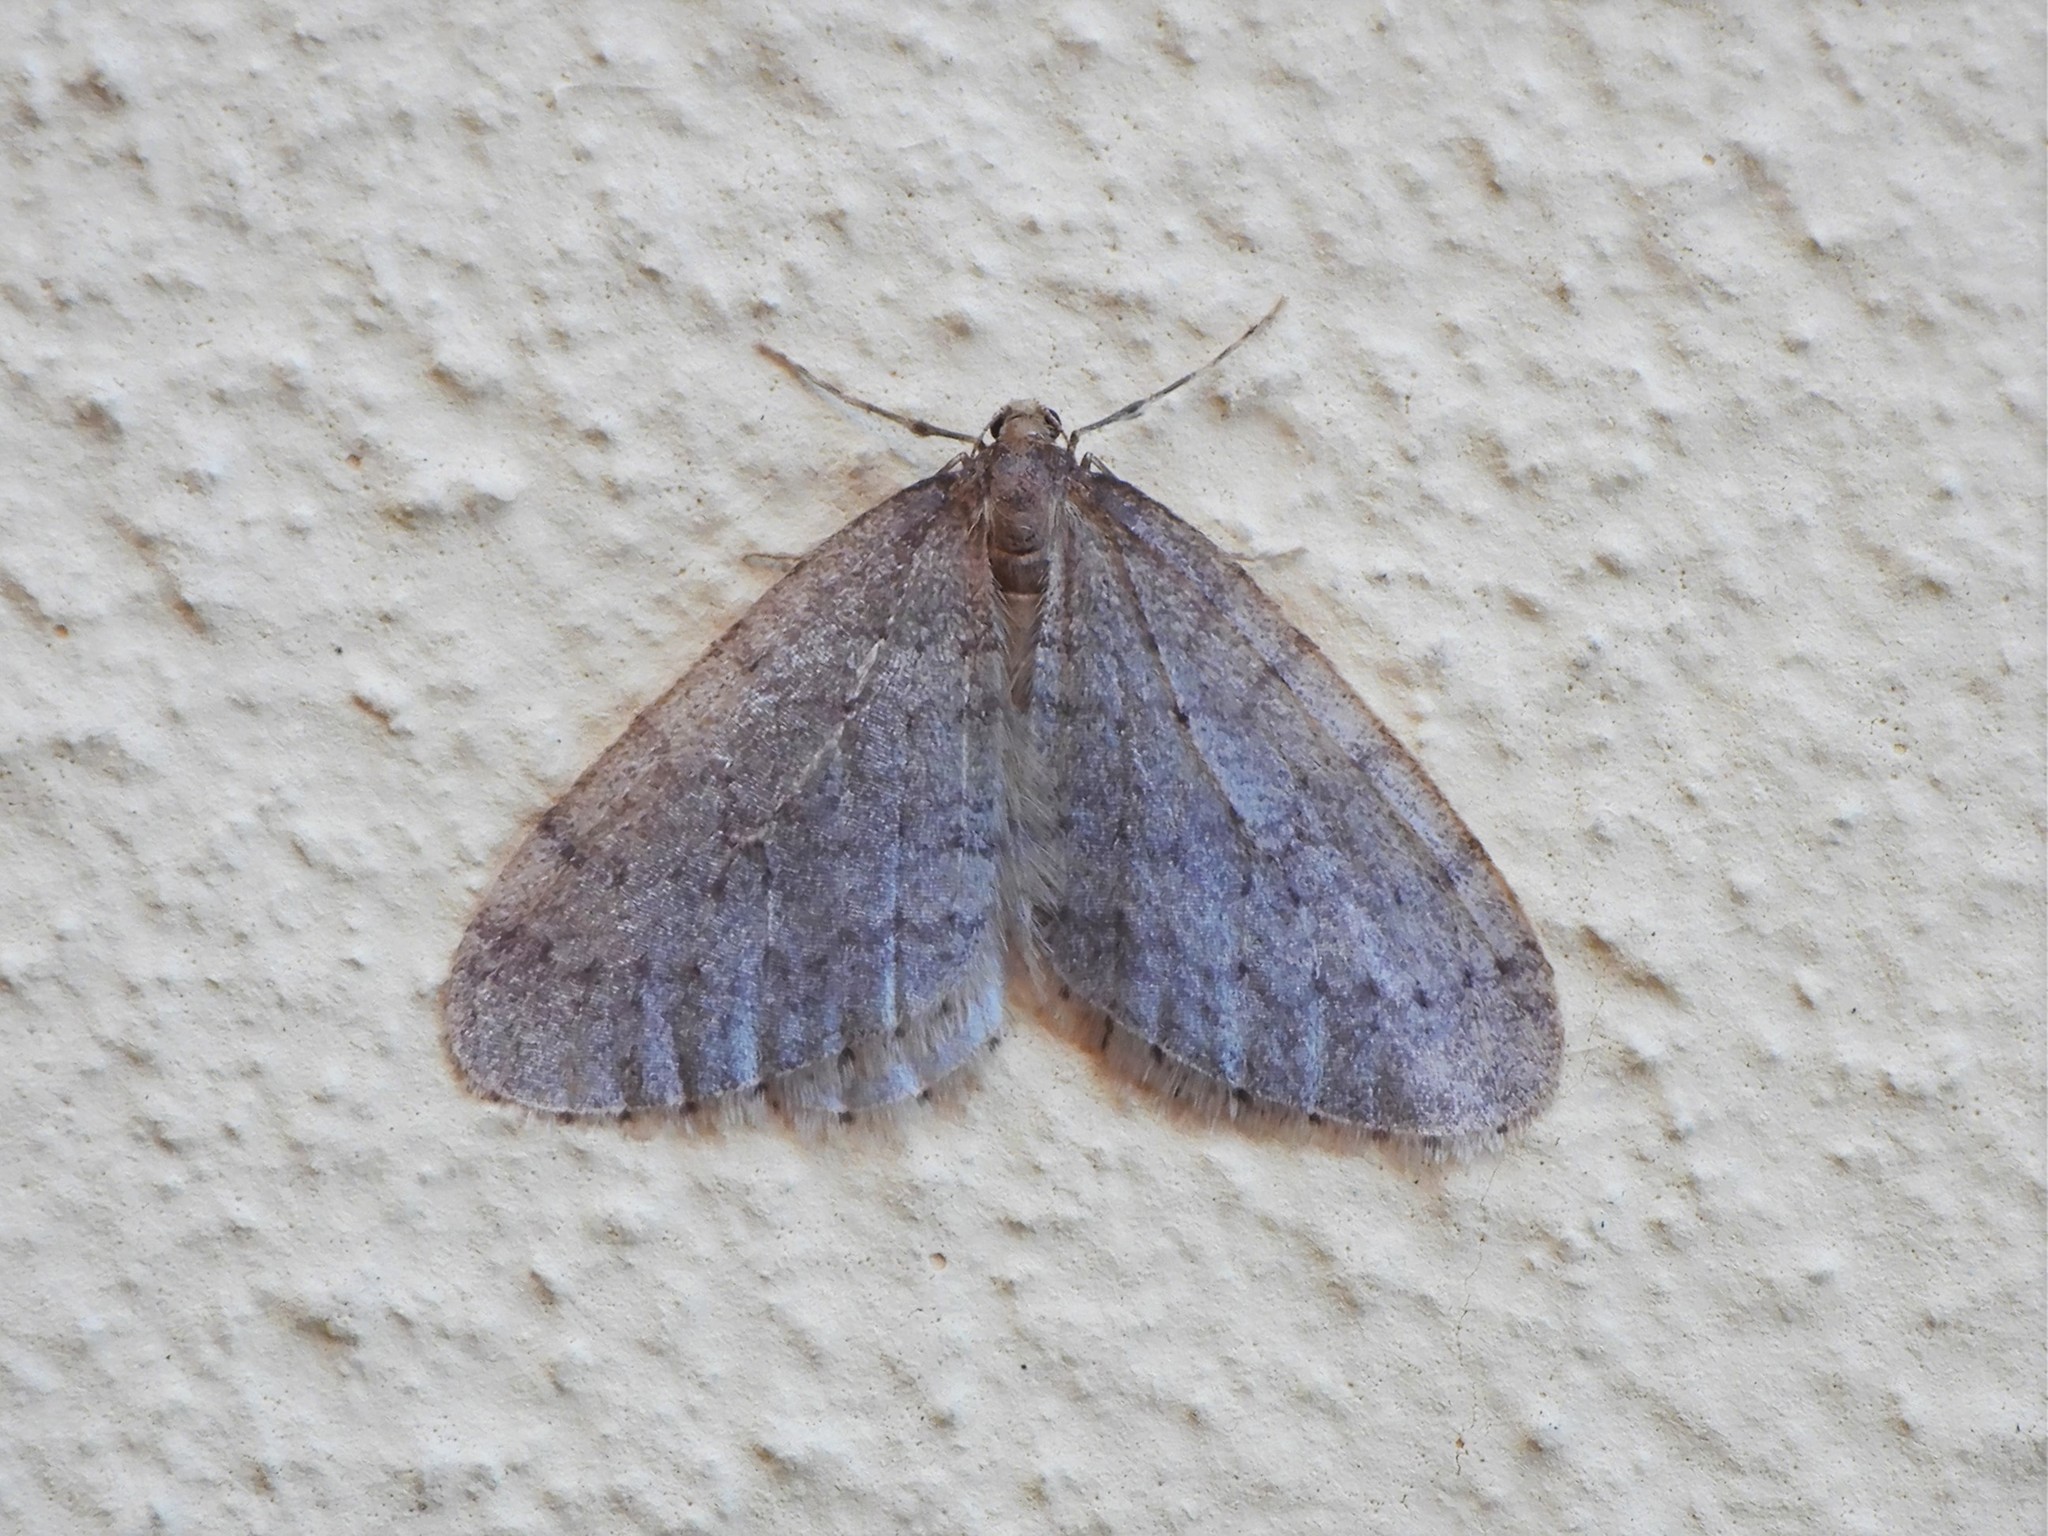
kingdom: Animalia
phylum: Arthropoda
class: Insecta
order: Lepidoptera
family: Geometridae
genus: Operophtera
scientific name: Operophtera brumata
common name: Winter moth
